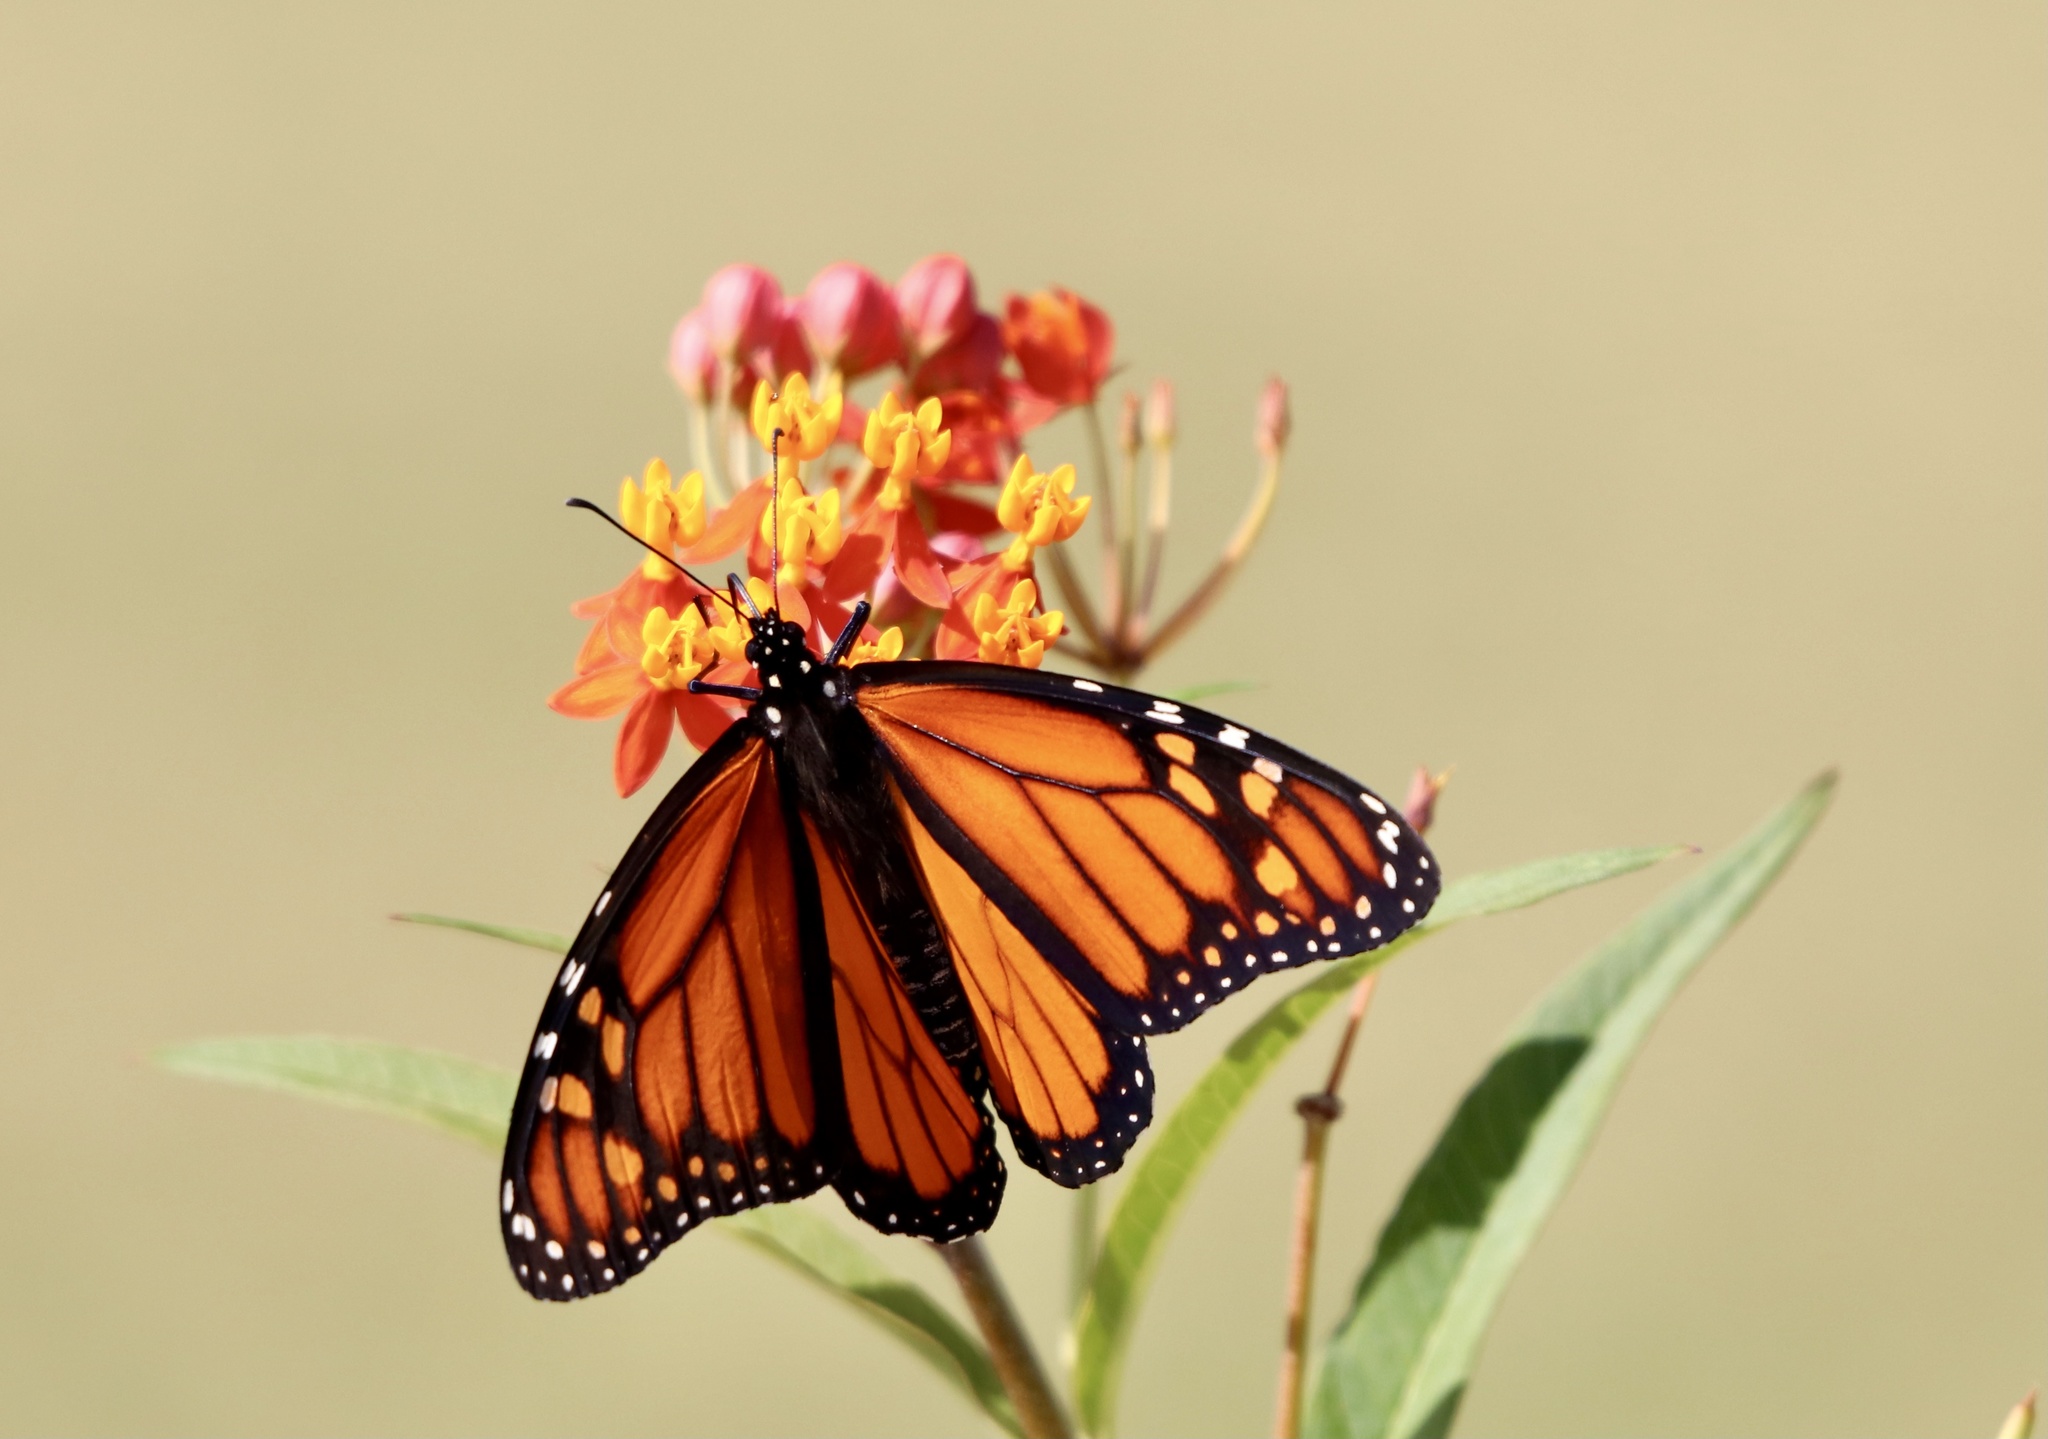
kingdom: Animalia
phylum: Arthropoda
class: Insecta
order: Lepidoptera
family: Nymphalidae
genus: Danaus
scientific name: Danaus plexippus
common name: Monarch
